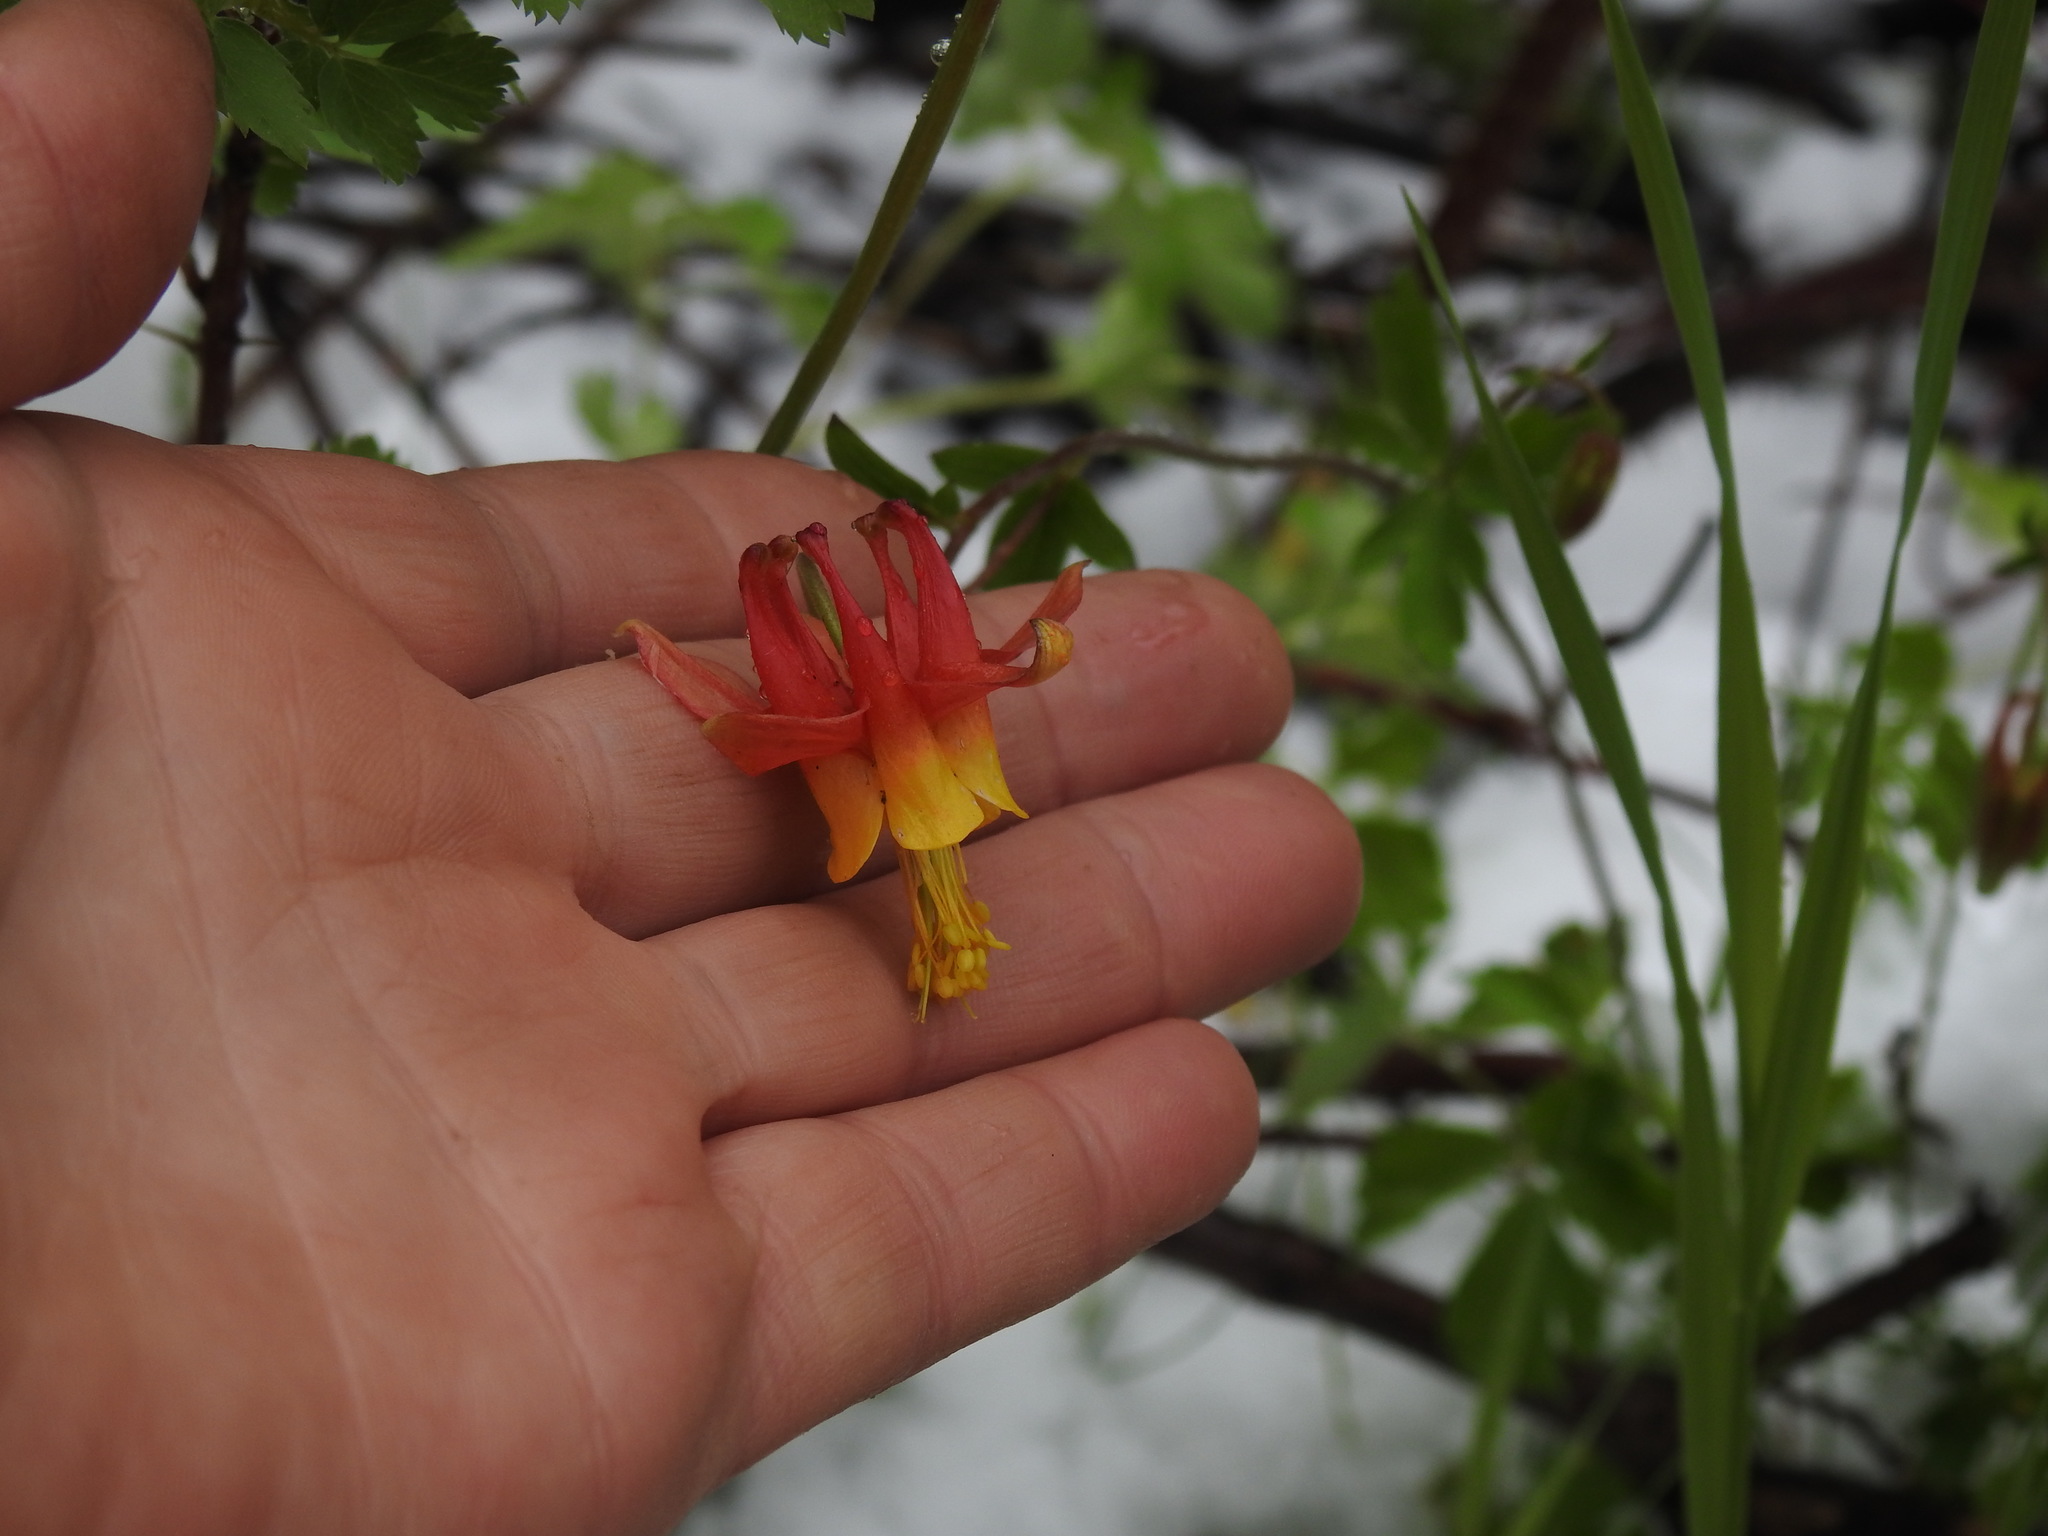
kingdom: Plantae
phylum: Tracheophyta
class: Magnoliopsida
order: Ranunculales
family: Ranunculaceae
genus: Aquilegia
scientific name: Aquilegia formosa
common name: Sitka columbine
